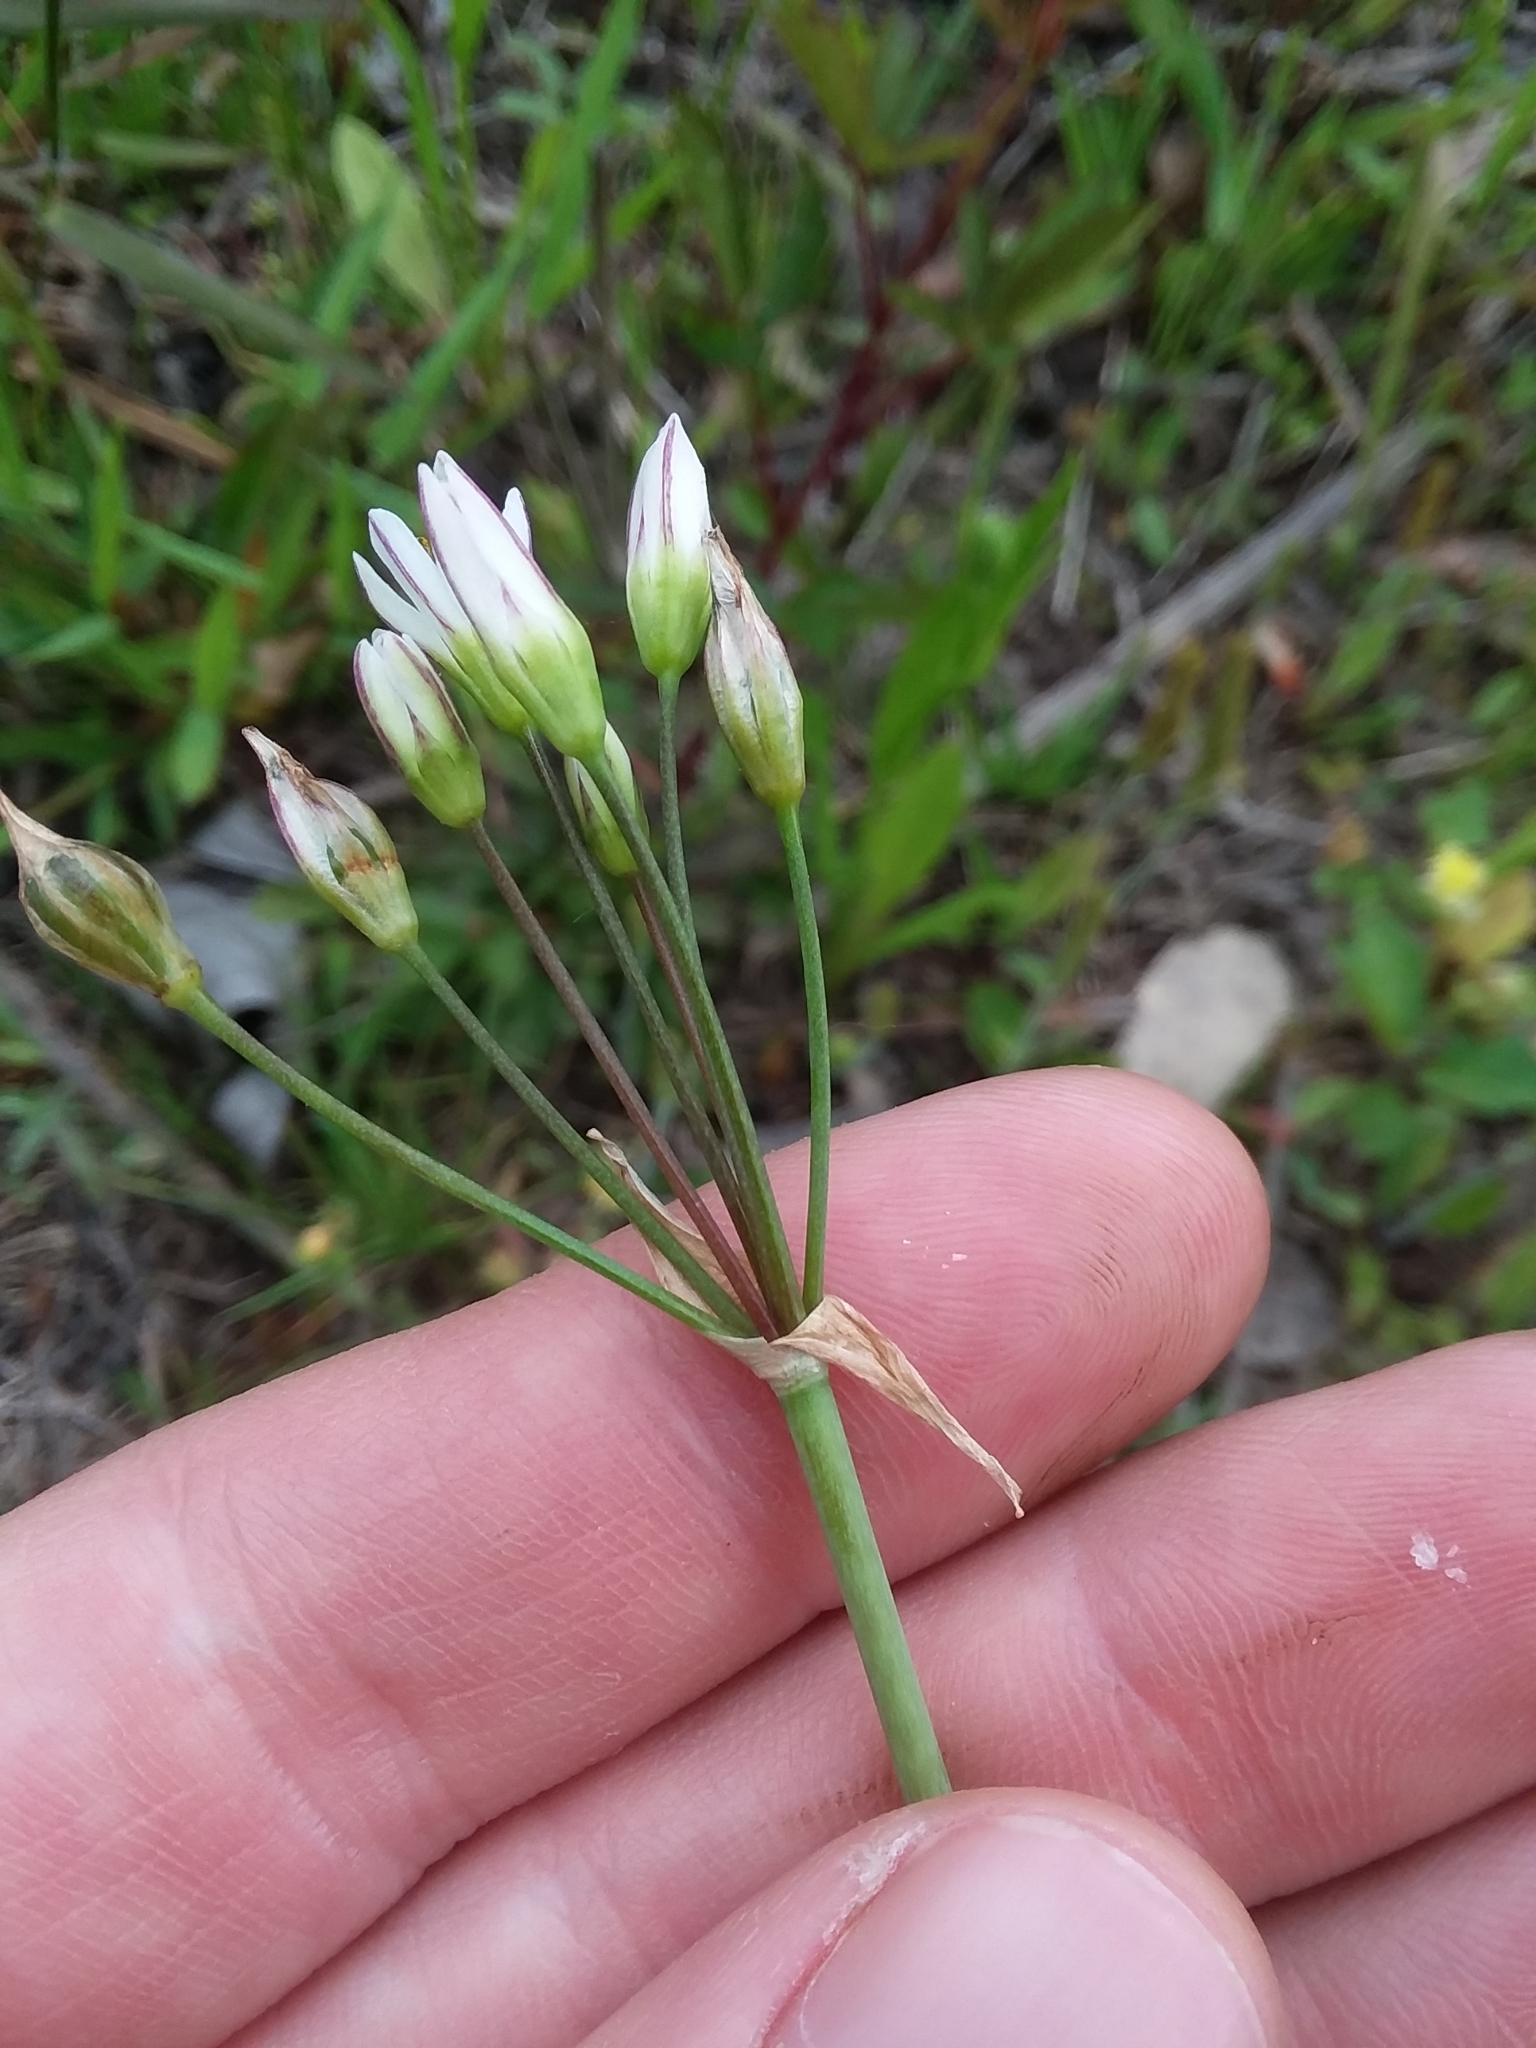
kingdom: Plantae
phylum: Tracheophyta
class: Liliopsida
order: Asparagales
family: Amaryllidaceae
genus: Nothoscordum
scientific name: Nothoscordum gracile
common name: Slender false garlic
